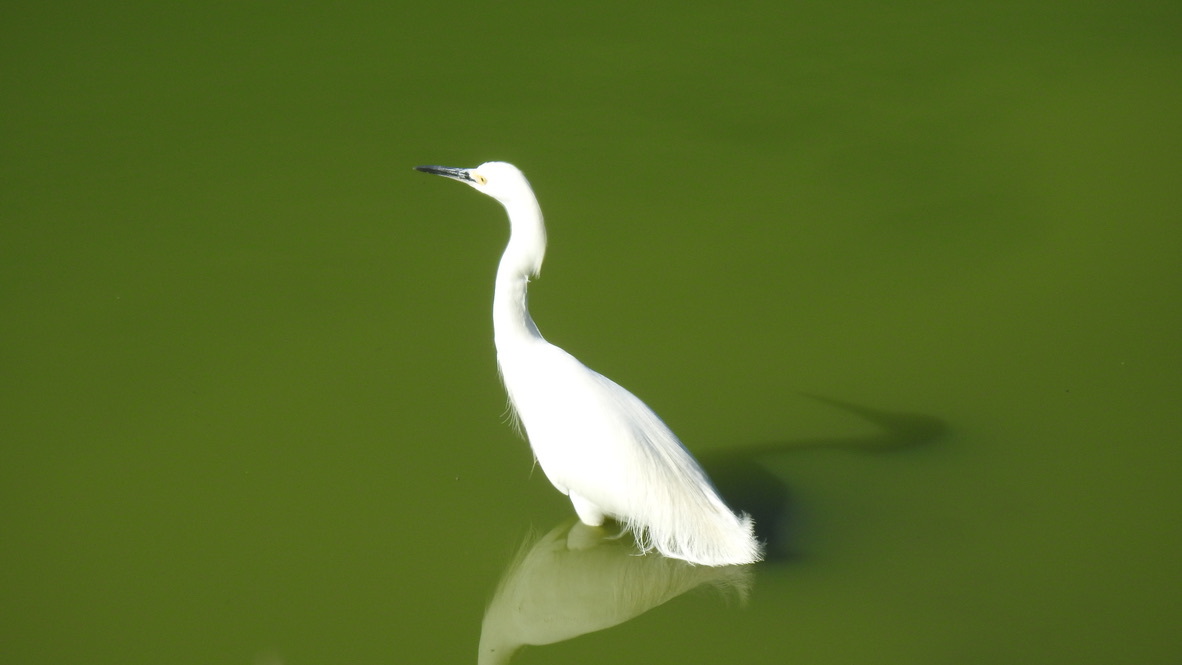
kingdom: Animalia
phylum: Chordata
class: Aves
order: Pelecaniformes
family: Ardeidae
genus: Egretta
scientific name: Egretta thula
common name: Snowy egret
